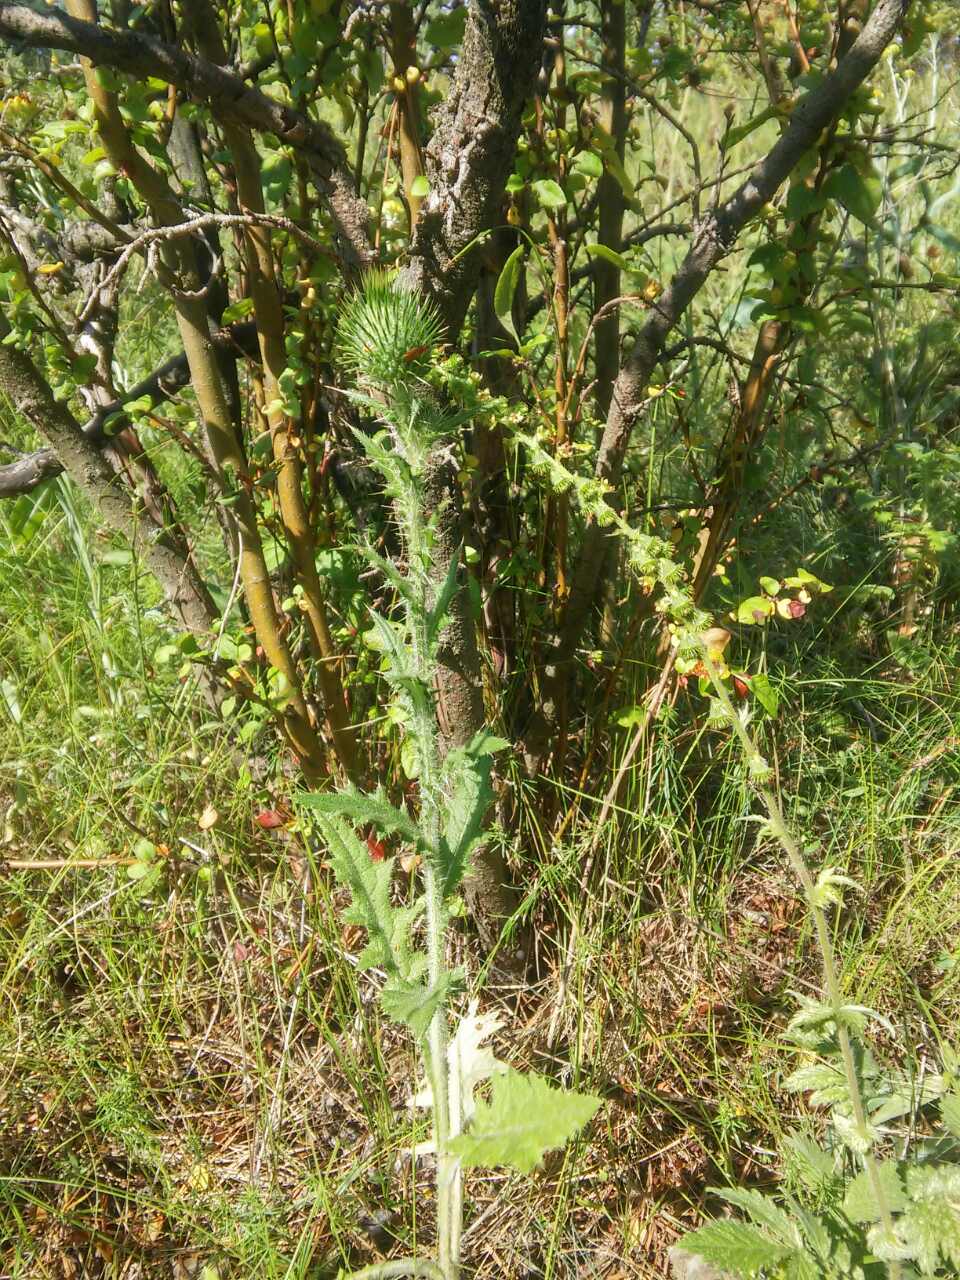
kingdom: Plantae
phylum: Tracheophyta
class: Magnoliopsida
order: Asterales
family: Asteraceae
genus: Cirsium
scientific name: Cirsium vulgare
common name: Bull thistle
